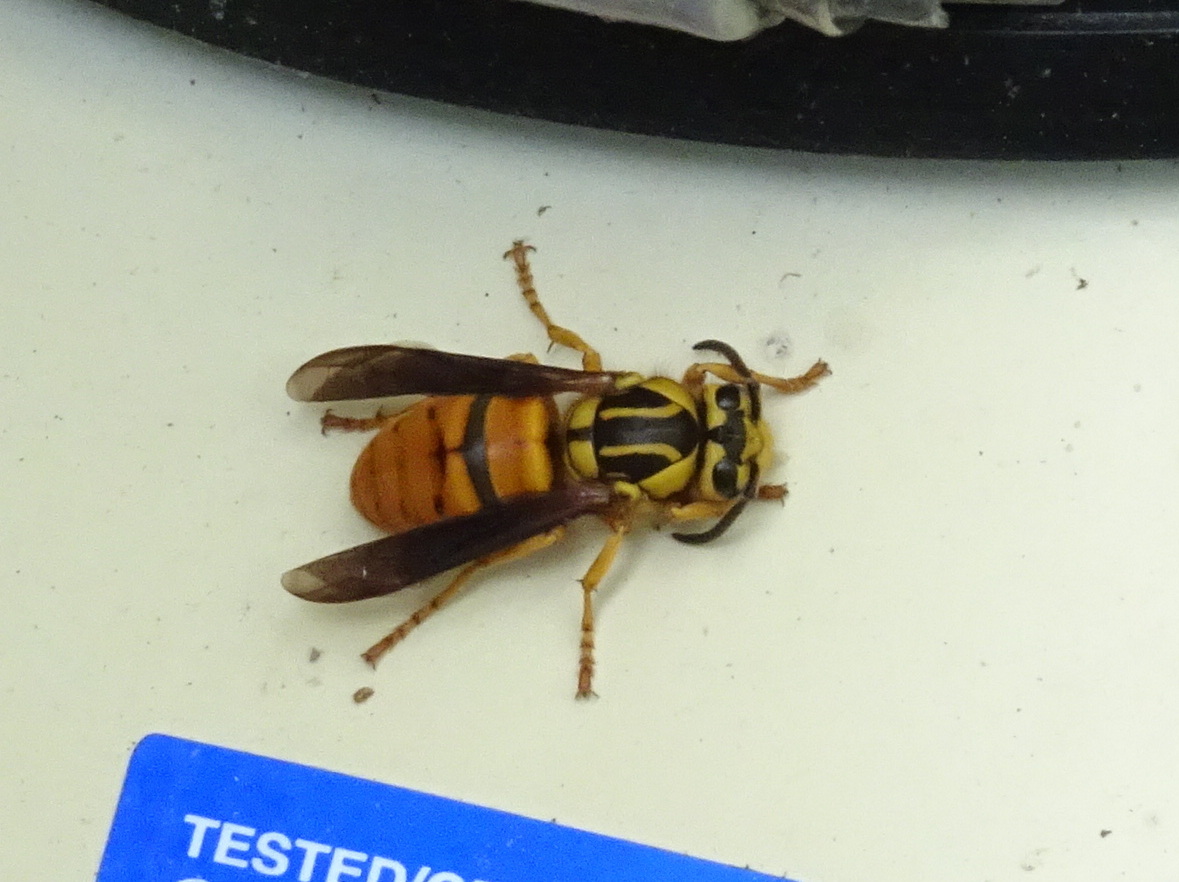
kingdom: Animalia
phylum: Arthropoda
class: Insecta
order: Hymenoptera
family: Vespidae
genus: Vespula
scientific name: Vespula squamosa
